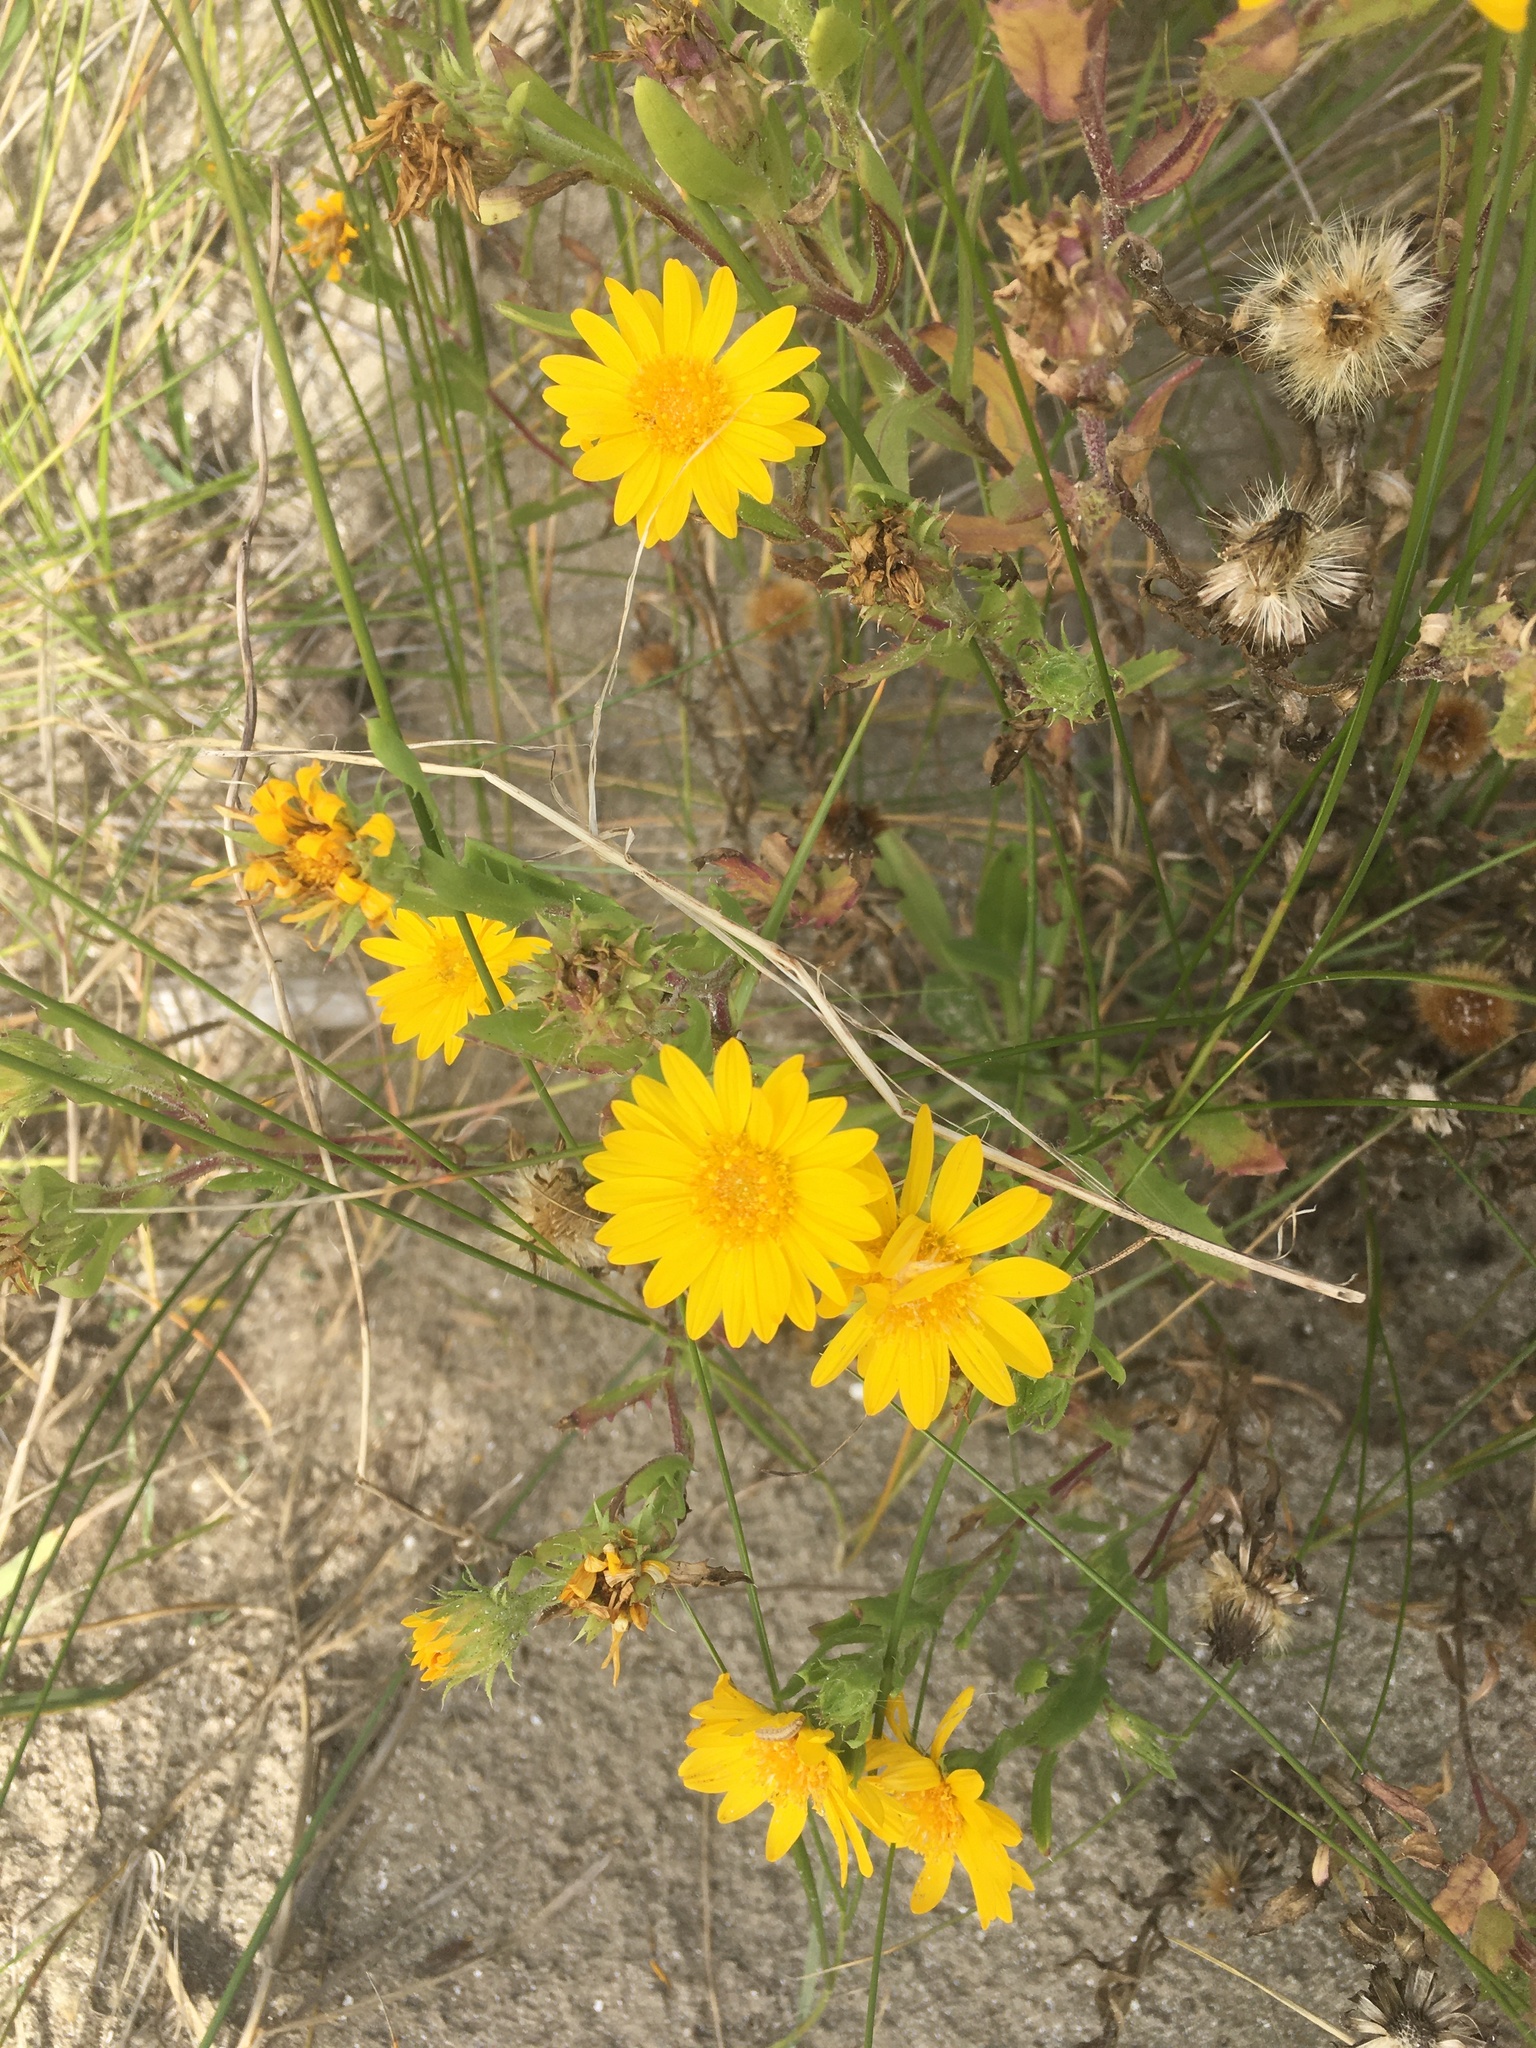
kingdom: Plantae
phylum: Tracheophyta
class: Magnoliopsida
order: Asterales
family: Asteraceae
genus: Rayjacksonia
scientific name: Rayjacksonia phyllocephala
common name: Gulf coast camphor daisy
